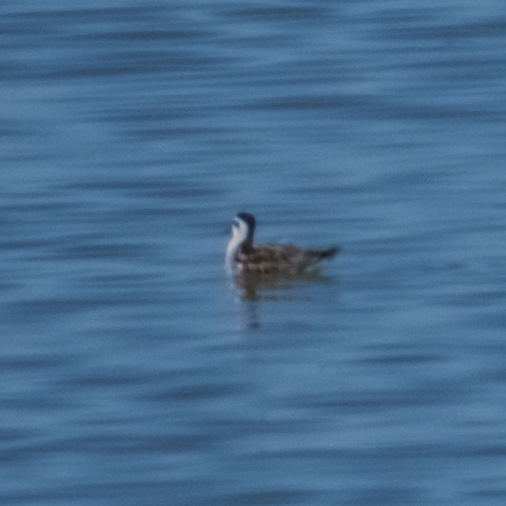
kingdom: Animalia
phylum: Chordata
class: Aves
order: Charadriiformes
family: Scolopacidae
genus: Phalaropus
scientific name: Phalaropus lobatus
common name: Red-necked phalarope
